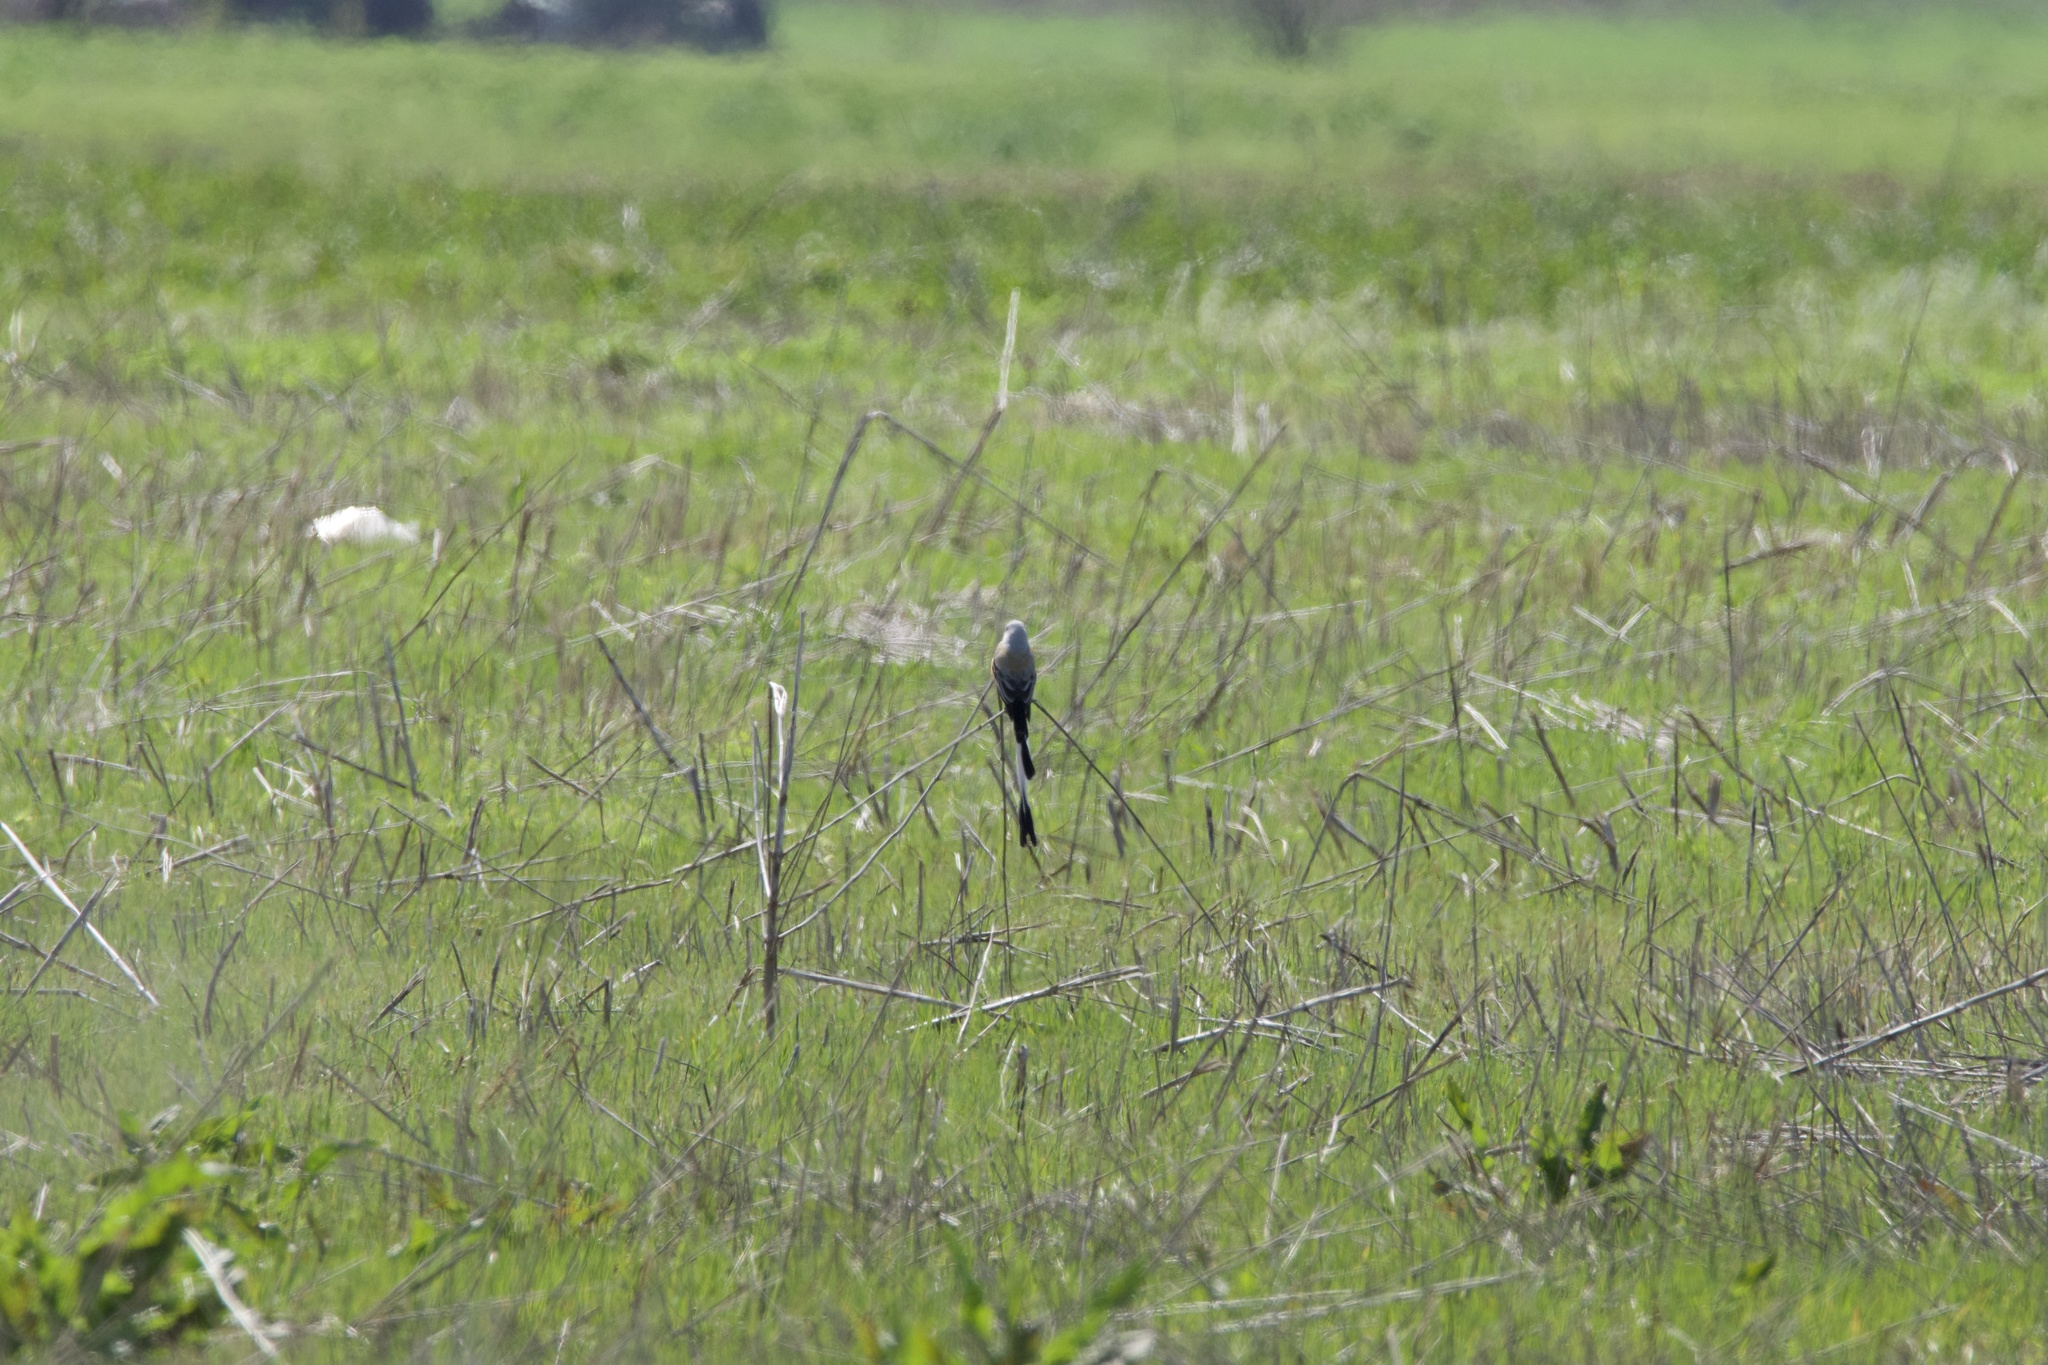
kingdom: Animalia
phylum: Chordata
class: Aves
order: Passeriformes
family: Tyrannidae
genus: Tyrannus
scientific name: Tyrannus forficatus
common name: Scissor-tailed flycatcher
